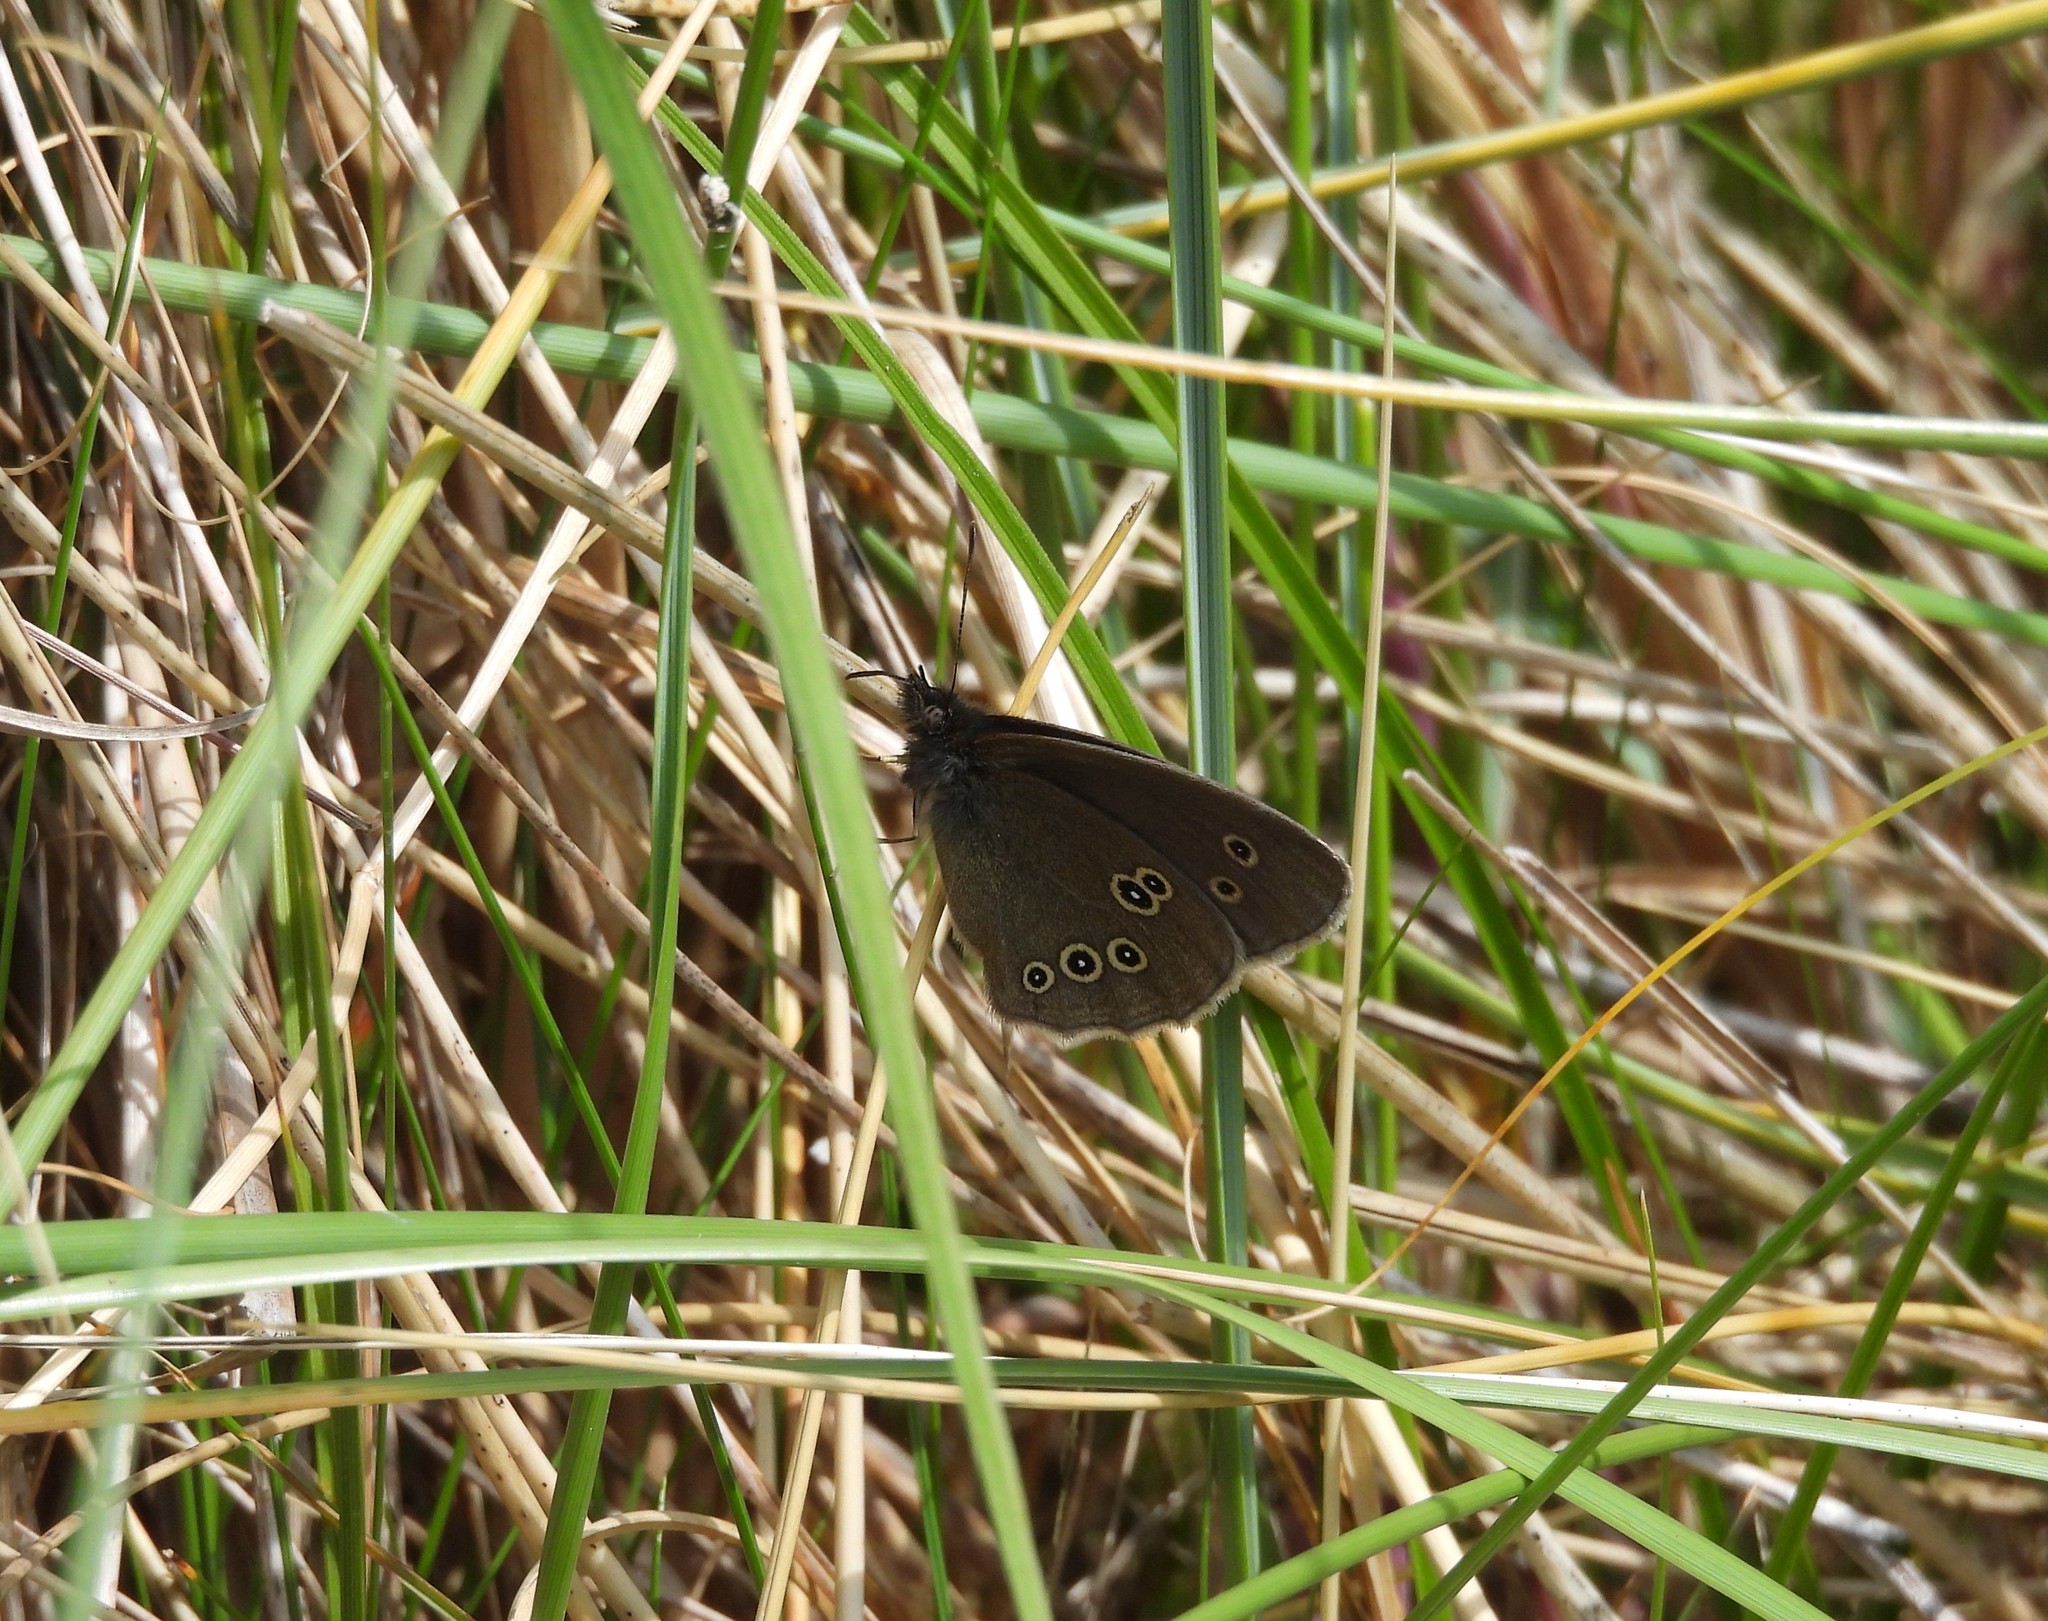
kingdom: Animalia
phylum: Arthropoda
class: Insecta
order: Lepidoptera
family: Nymphalidae
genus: Aphantopus
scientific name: Aphantopus hyperantus
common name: Ringlet
